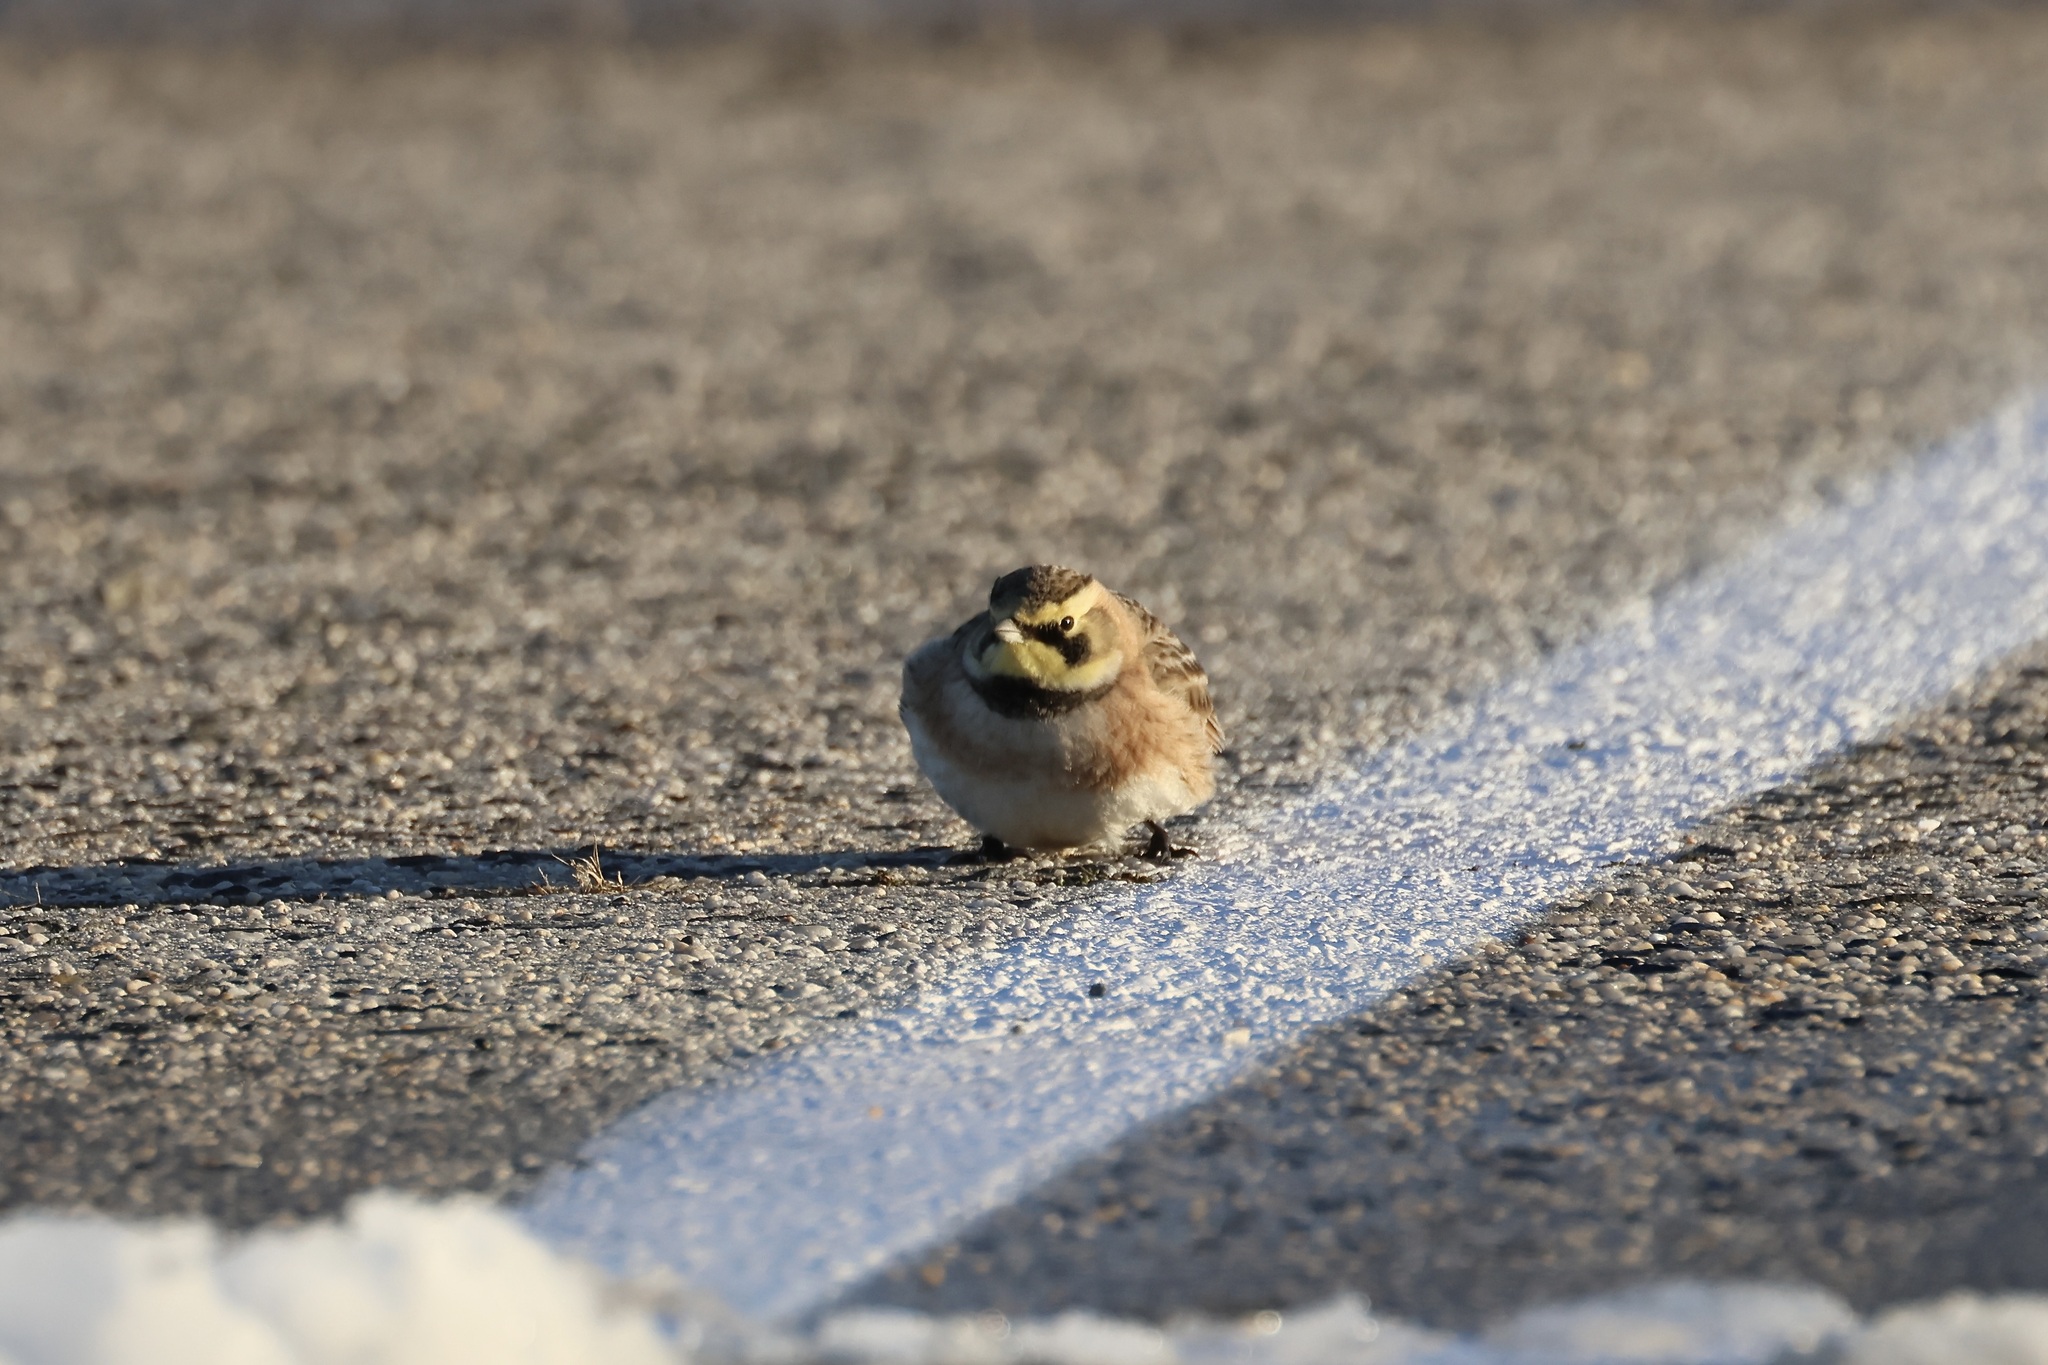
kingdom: Animalia
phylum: Chordata
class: Aves
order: Passeriformes
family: Alaudidae
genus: Eremophila
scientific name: Eremophila alpestris
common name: Horned lark
